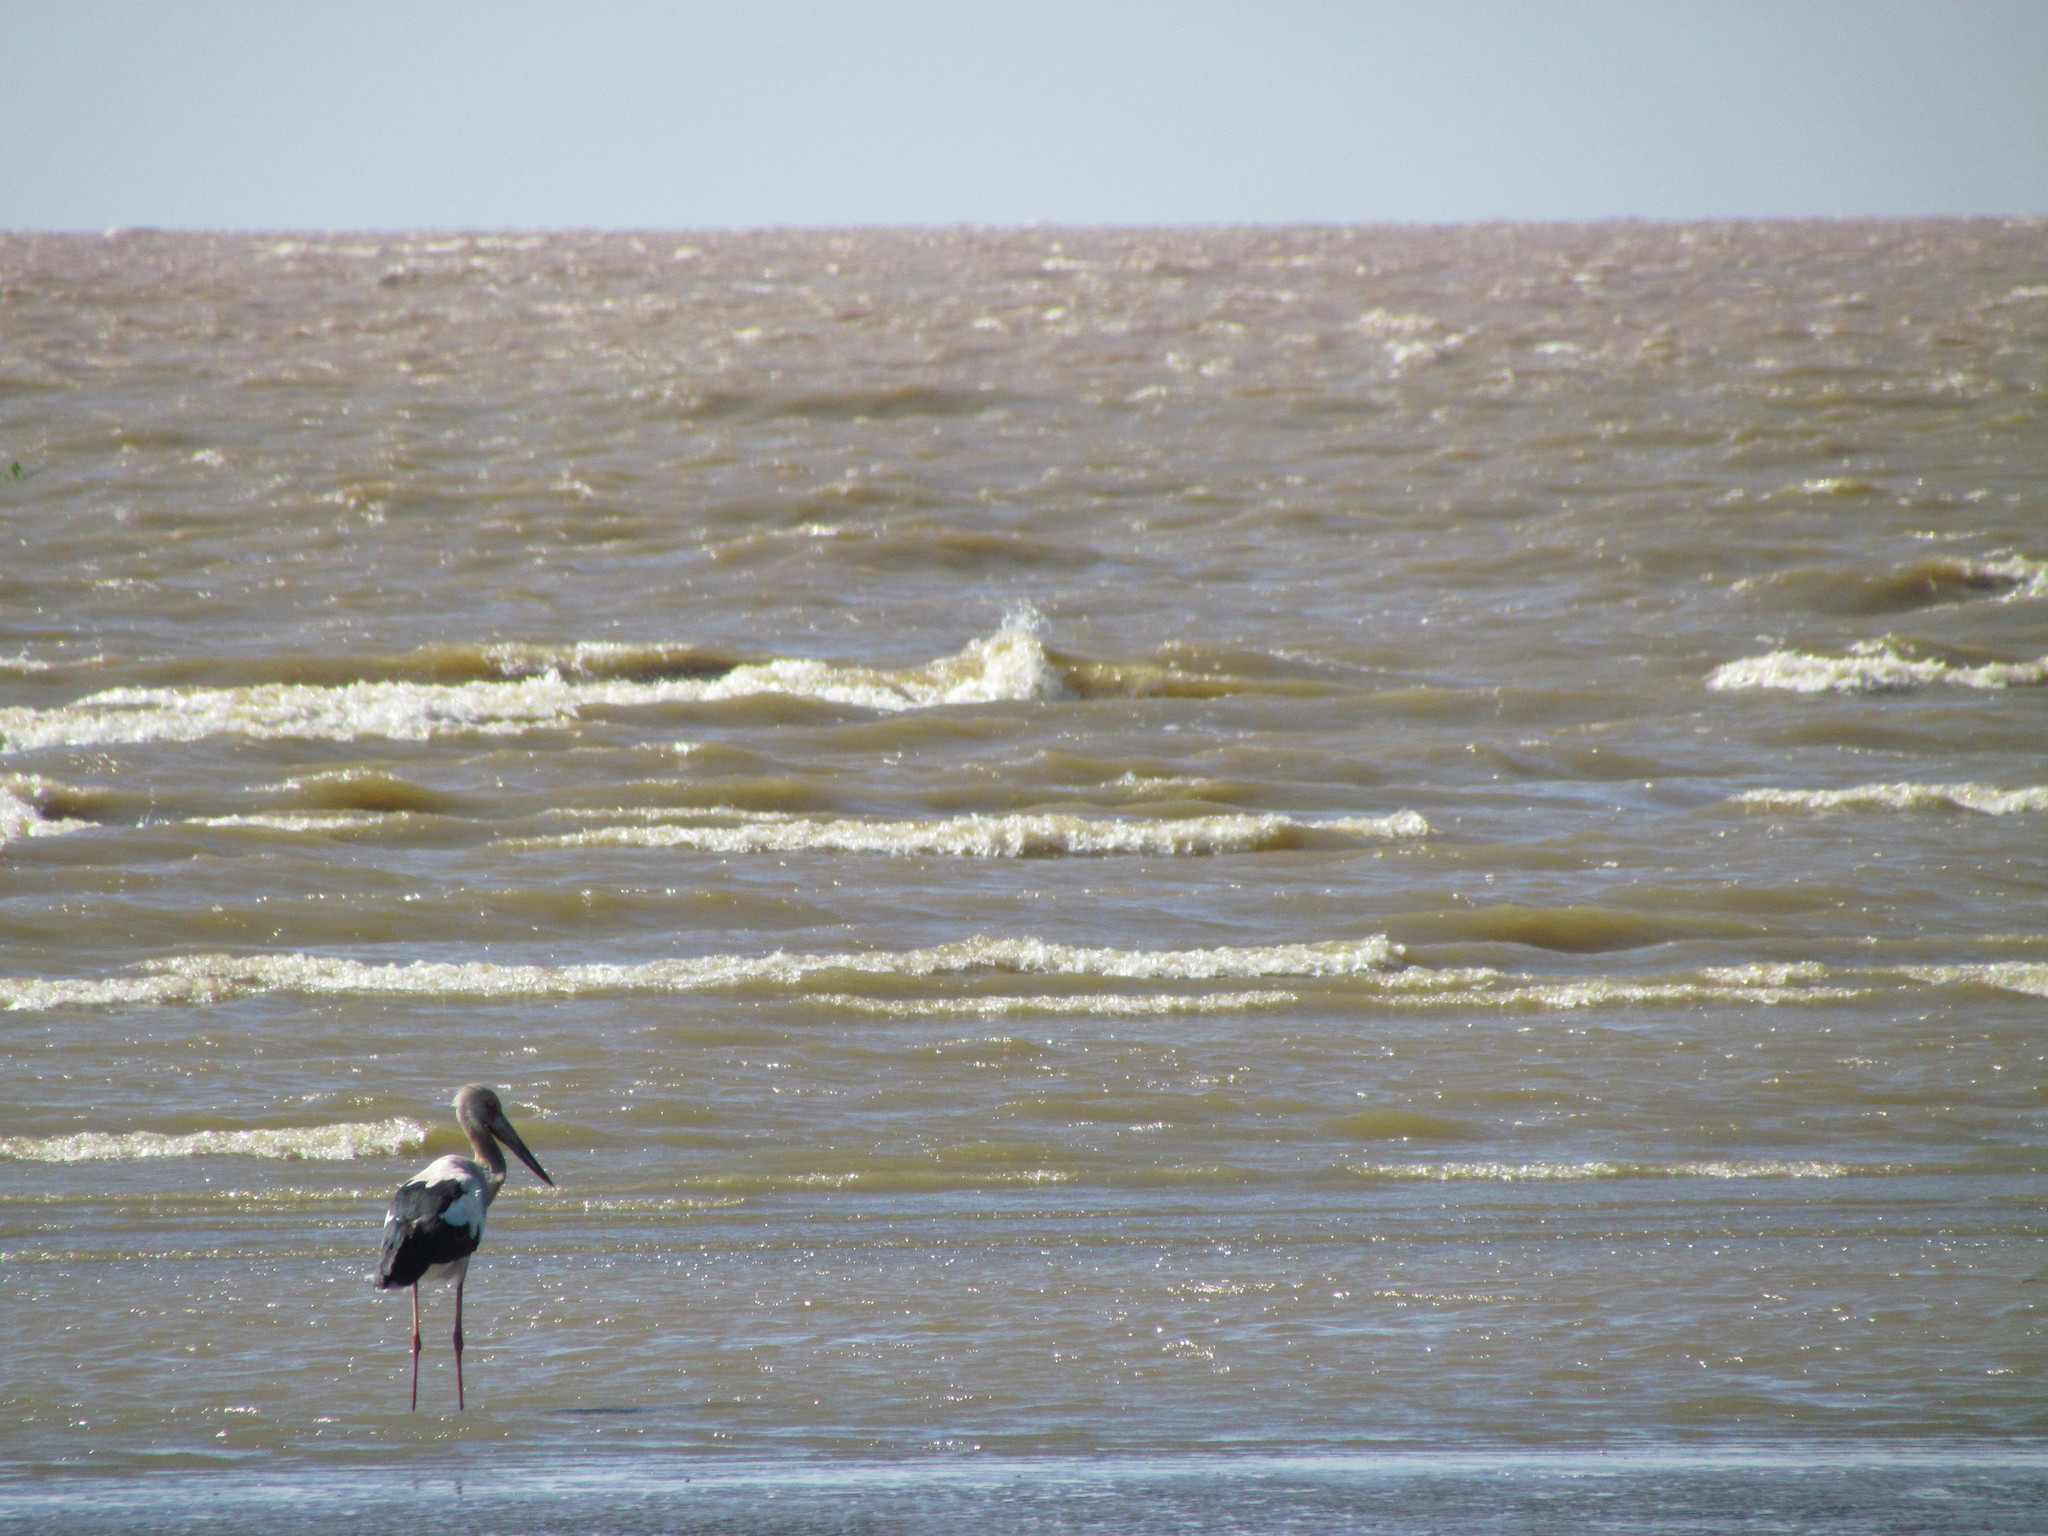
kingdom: Animalia
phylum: Chordata
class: Aves
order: Ciconiiformes
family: Ciconiidae
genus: Ciconia
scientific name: Ciconia maguari
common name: Maguari stork
